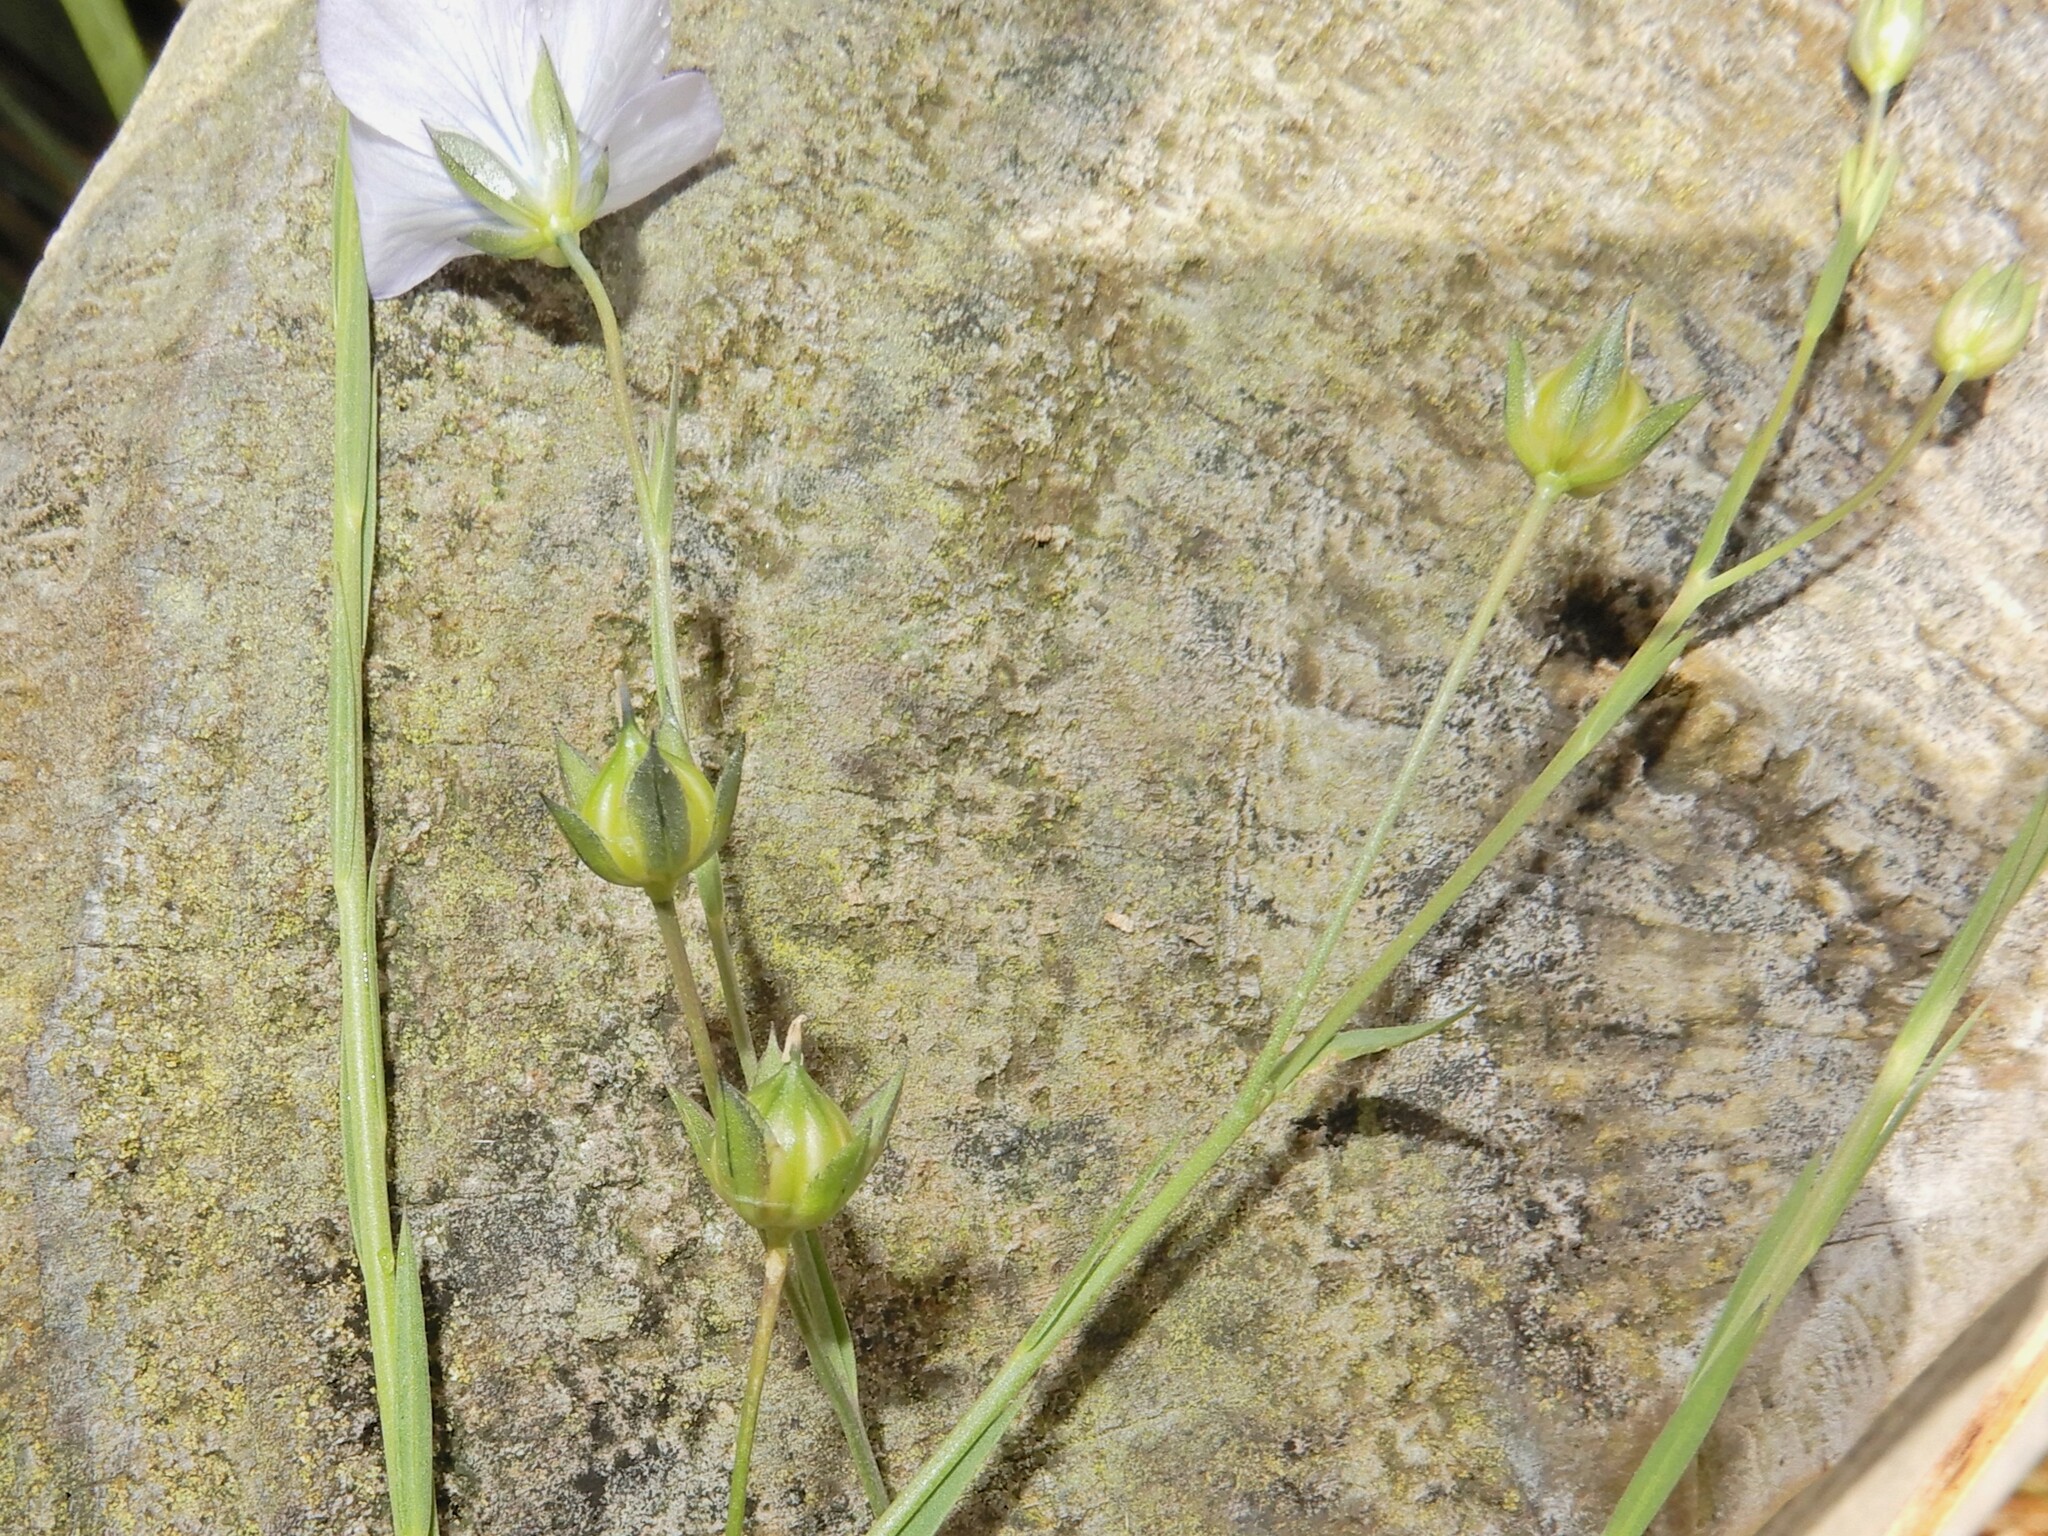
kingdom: Plantae
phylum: Tracheophyta
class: Magnoliopsida
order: Malpighiales
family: Linaceae
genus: Linum
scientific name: Linum bienne
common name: Pale flax
